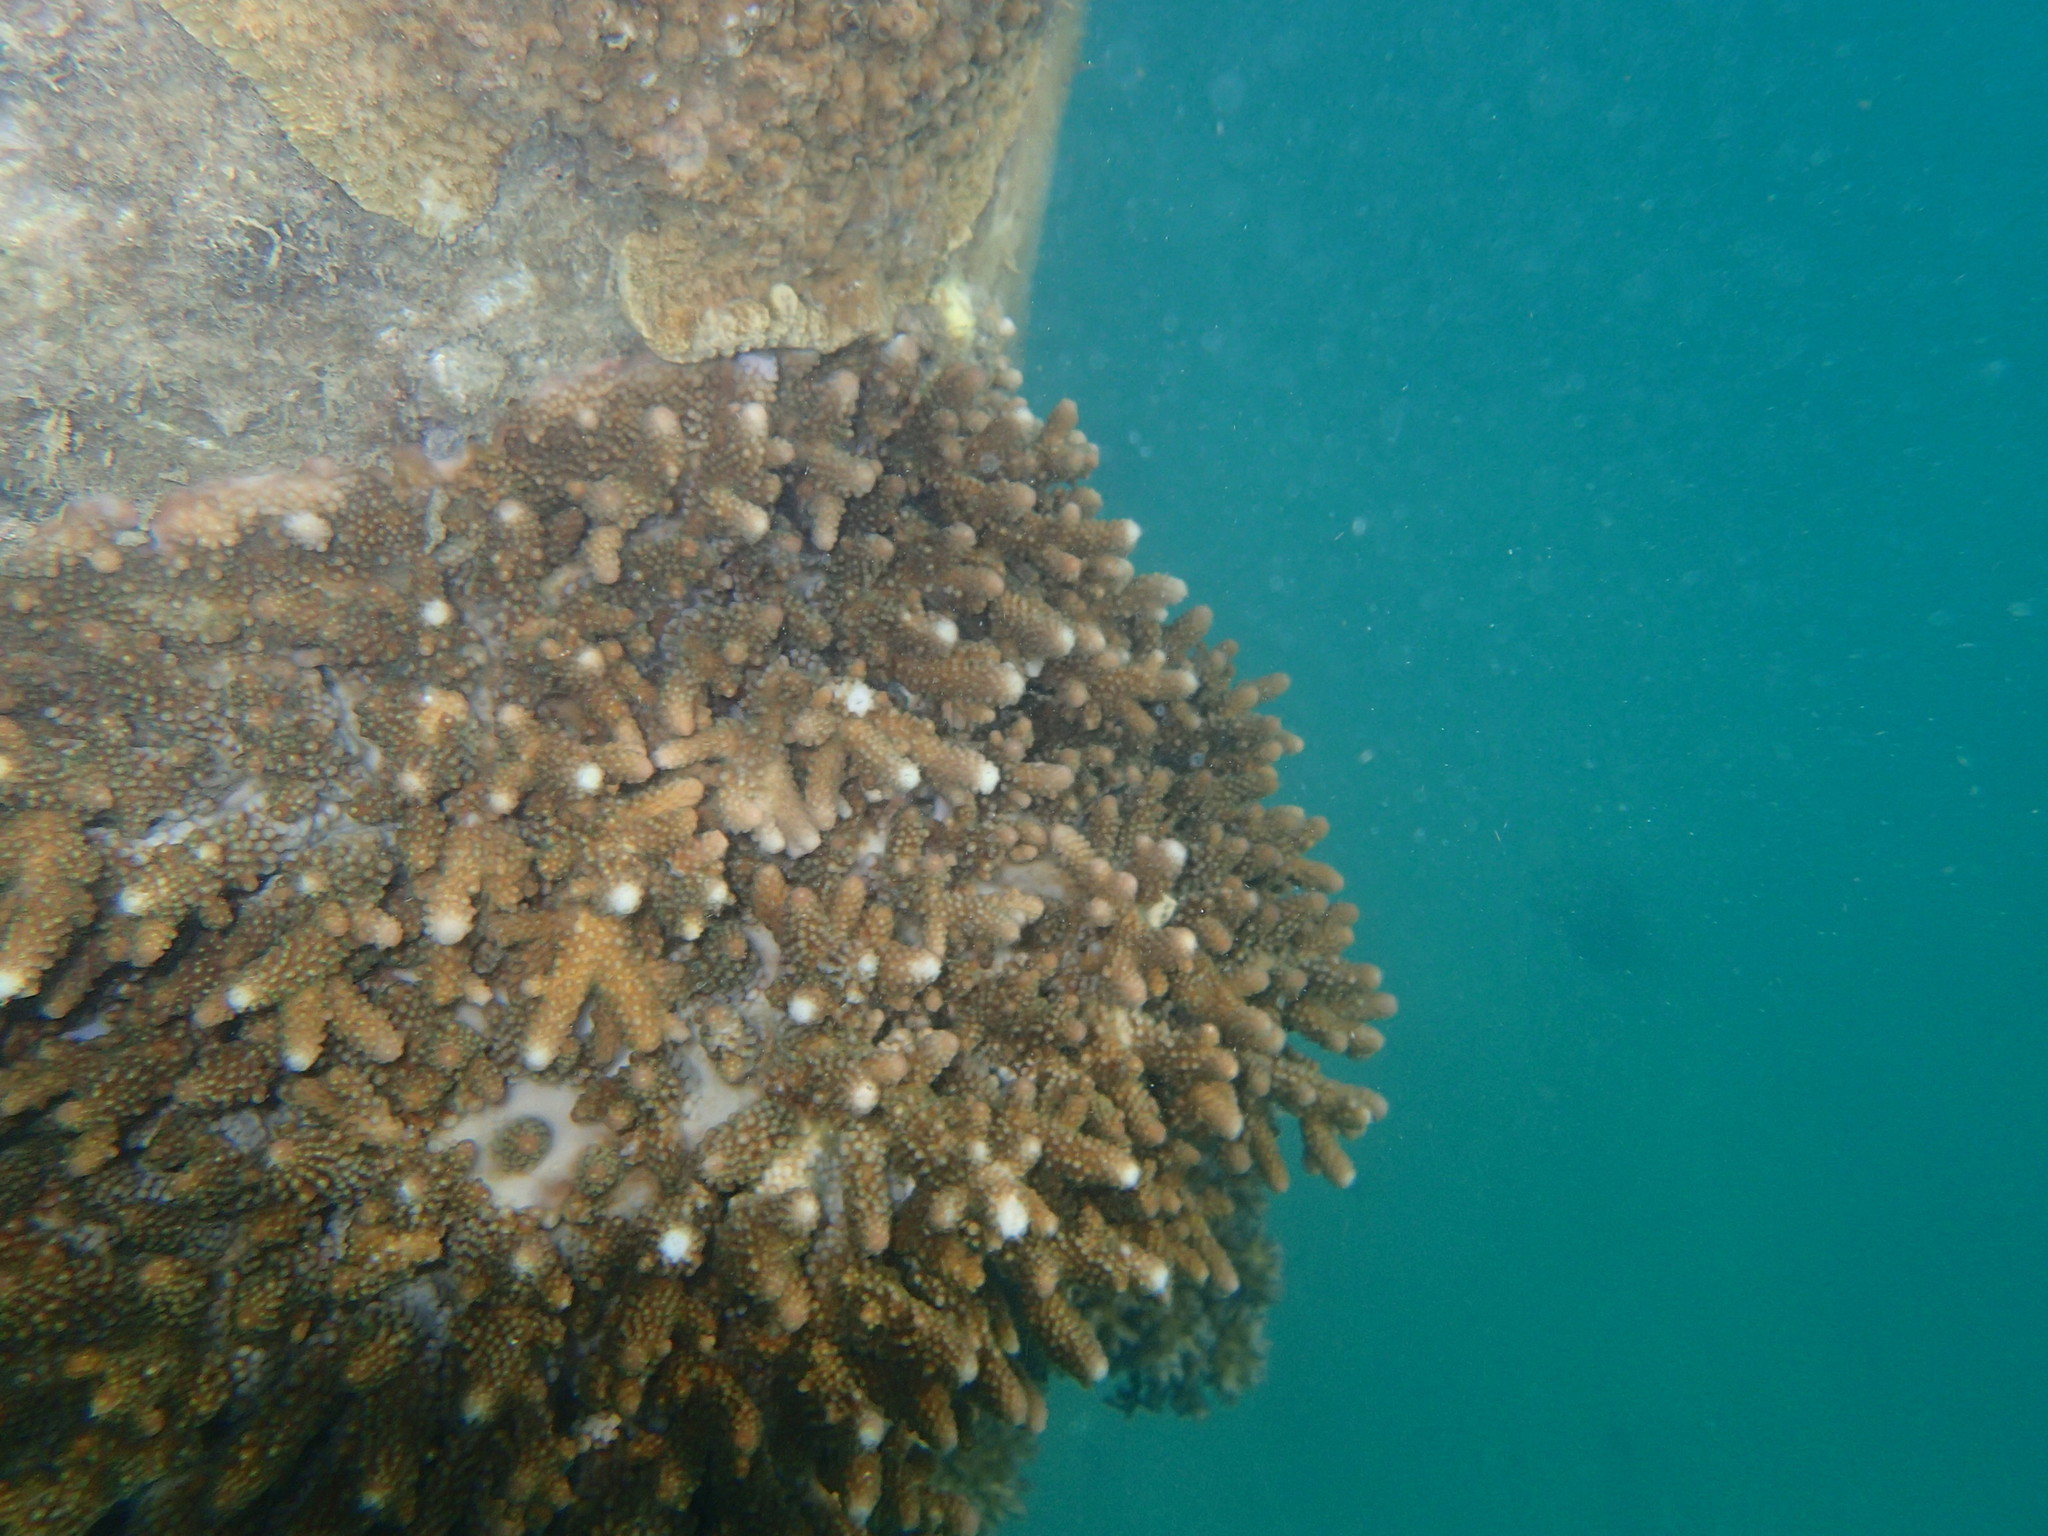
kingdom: Animalia
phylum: Cnidaria
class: Anthozoa
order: Scleractinia
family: Acroporidae
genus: Acropora
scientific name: Acropora samoensis
